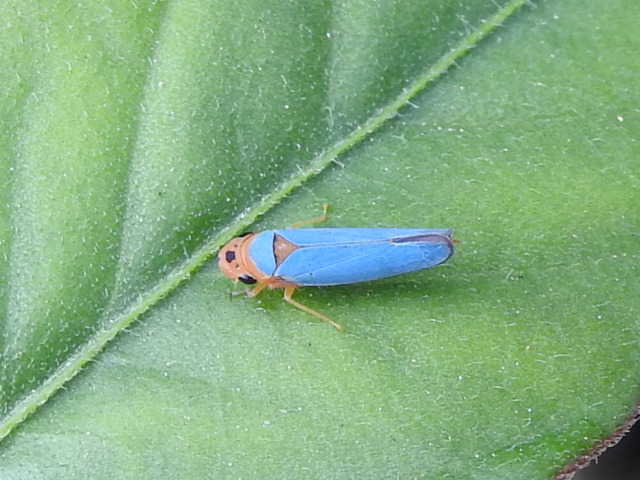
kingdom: Animalia
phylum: Arthropoda
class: Insecta
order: Hemiptera
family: Cicadellidae
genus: Macunolla
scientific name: Macunolla ventralis
